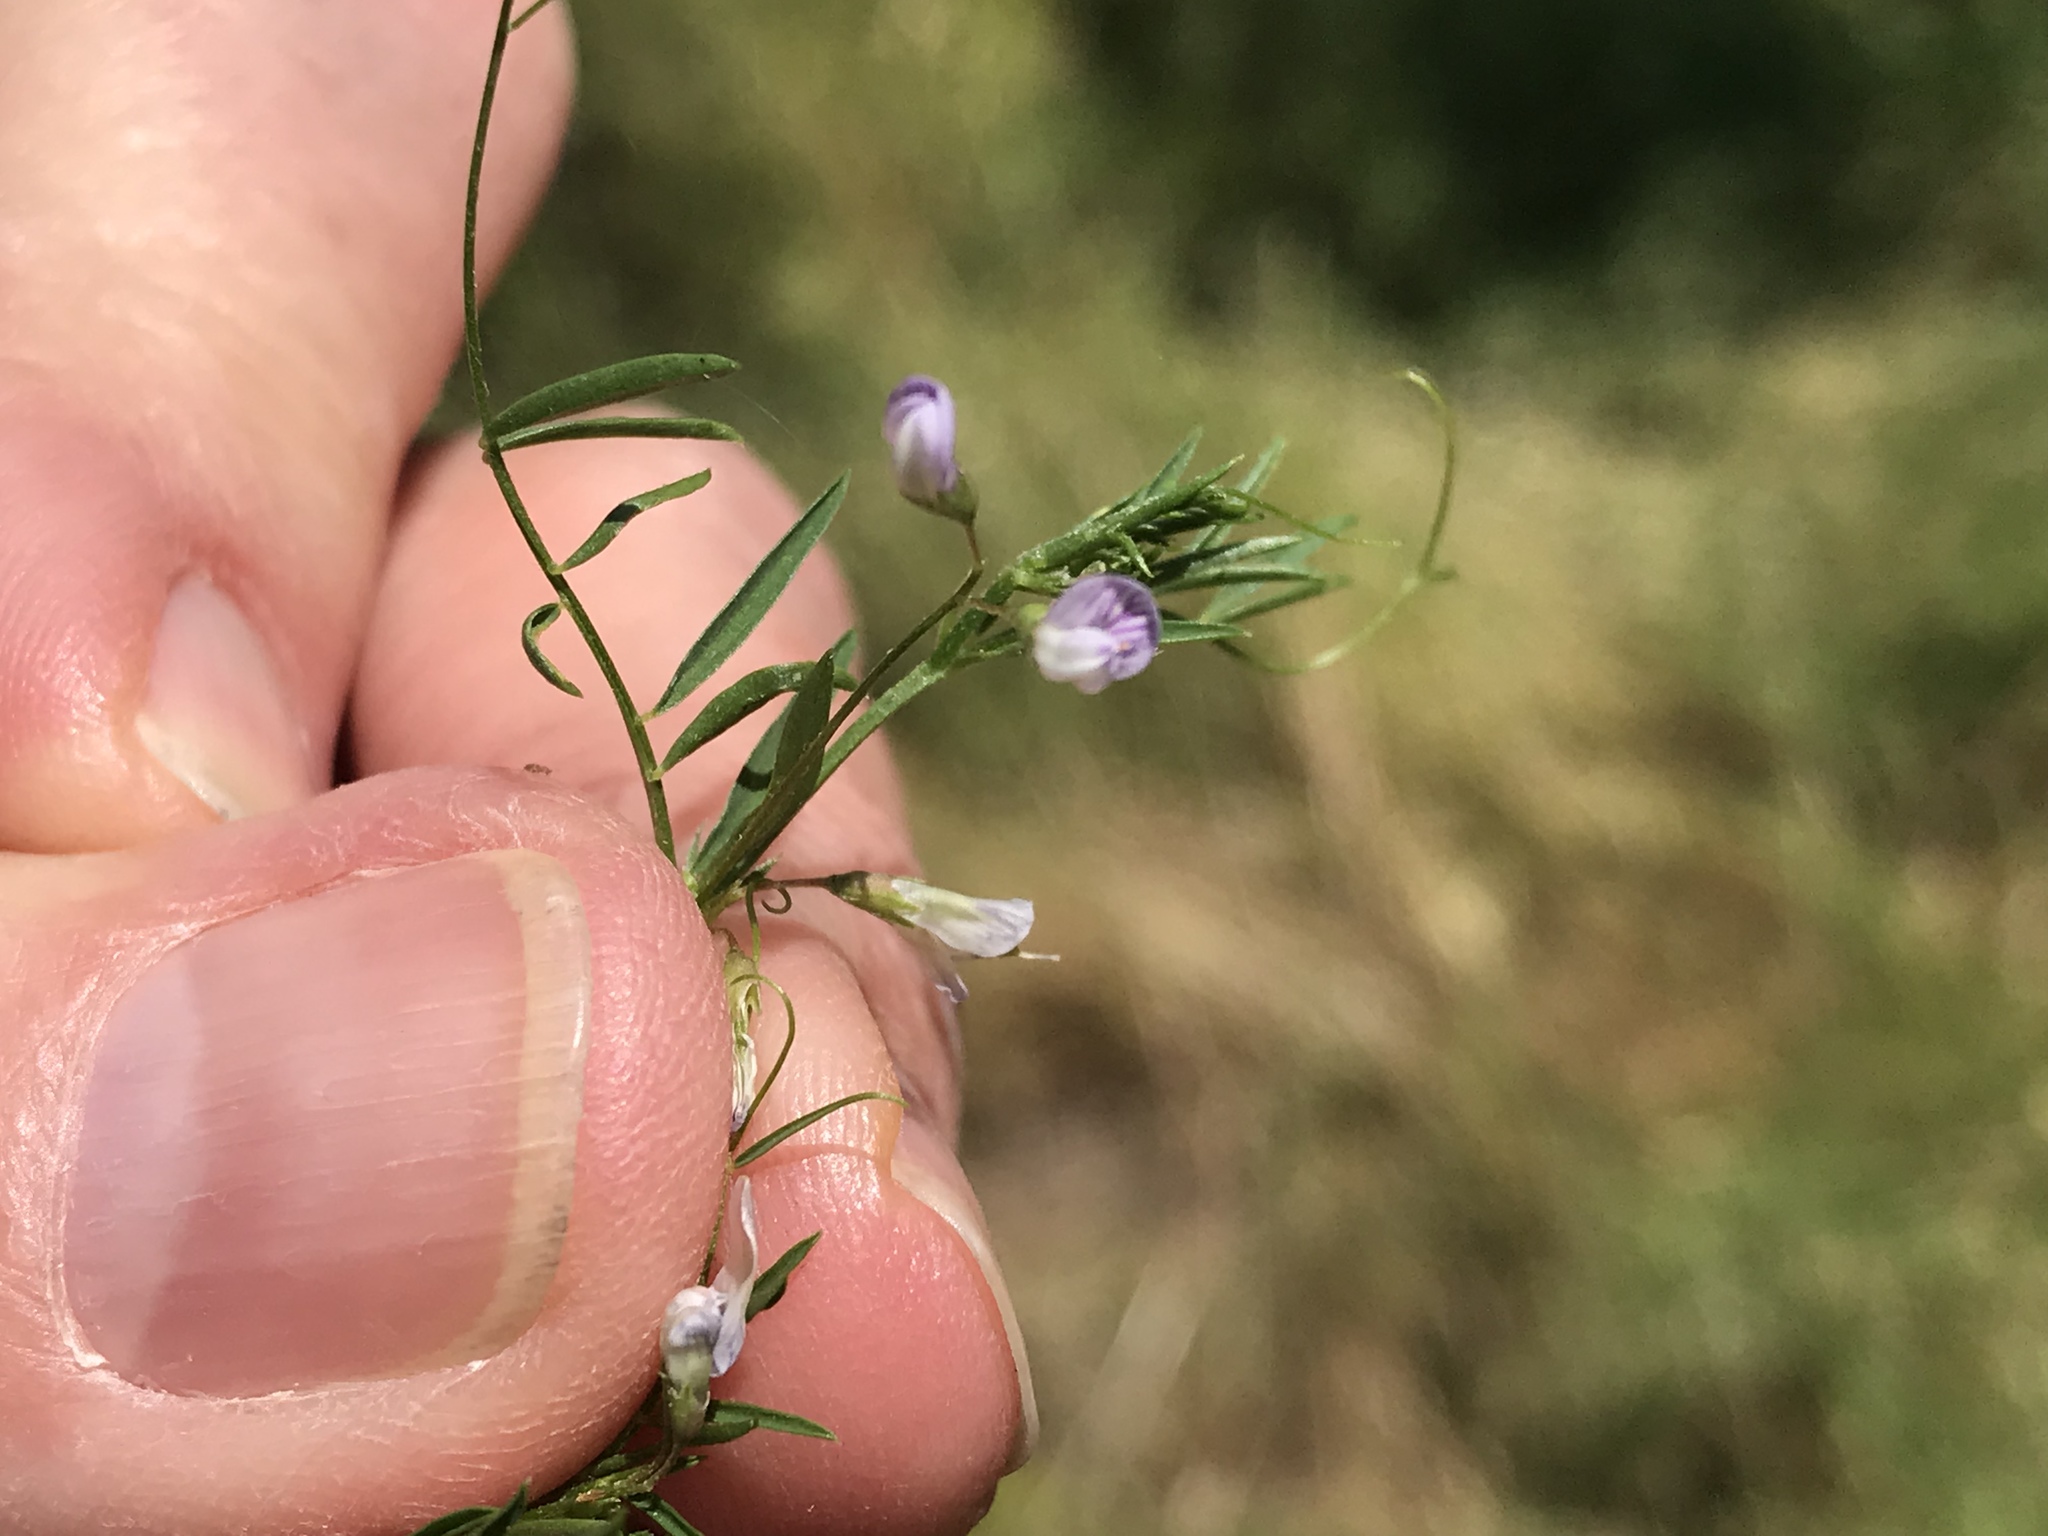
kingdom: Plantae
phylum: Tracheophyta
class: Magnoliopsida
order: Fabales
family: Fabaceae
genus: Vicia
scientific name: Vicia tetrasperma
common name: Smooth tare
